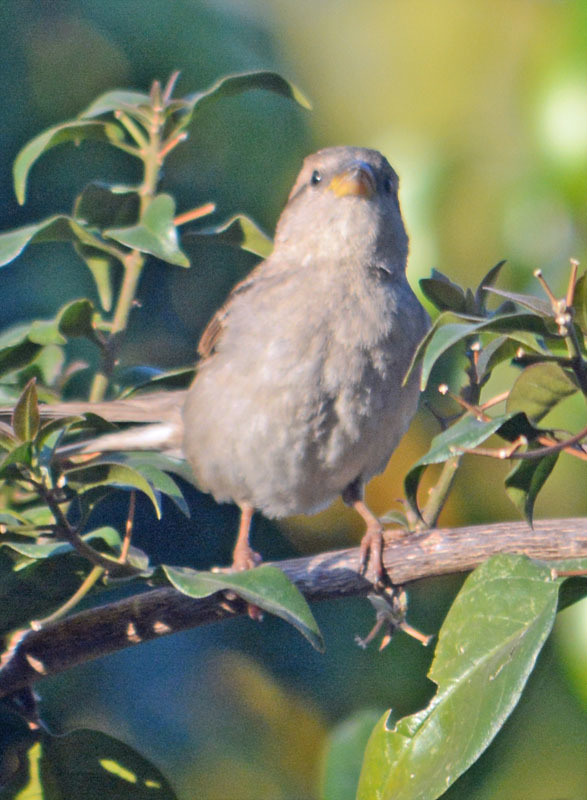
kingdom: Animalia
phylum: Chordata
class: Aves
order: Passeriformes
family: Passeridae
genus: Passer
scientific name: Passer domesticus
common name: House sparrow
